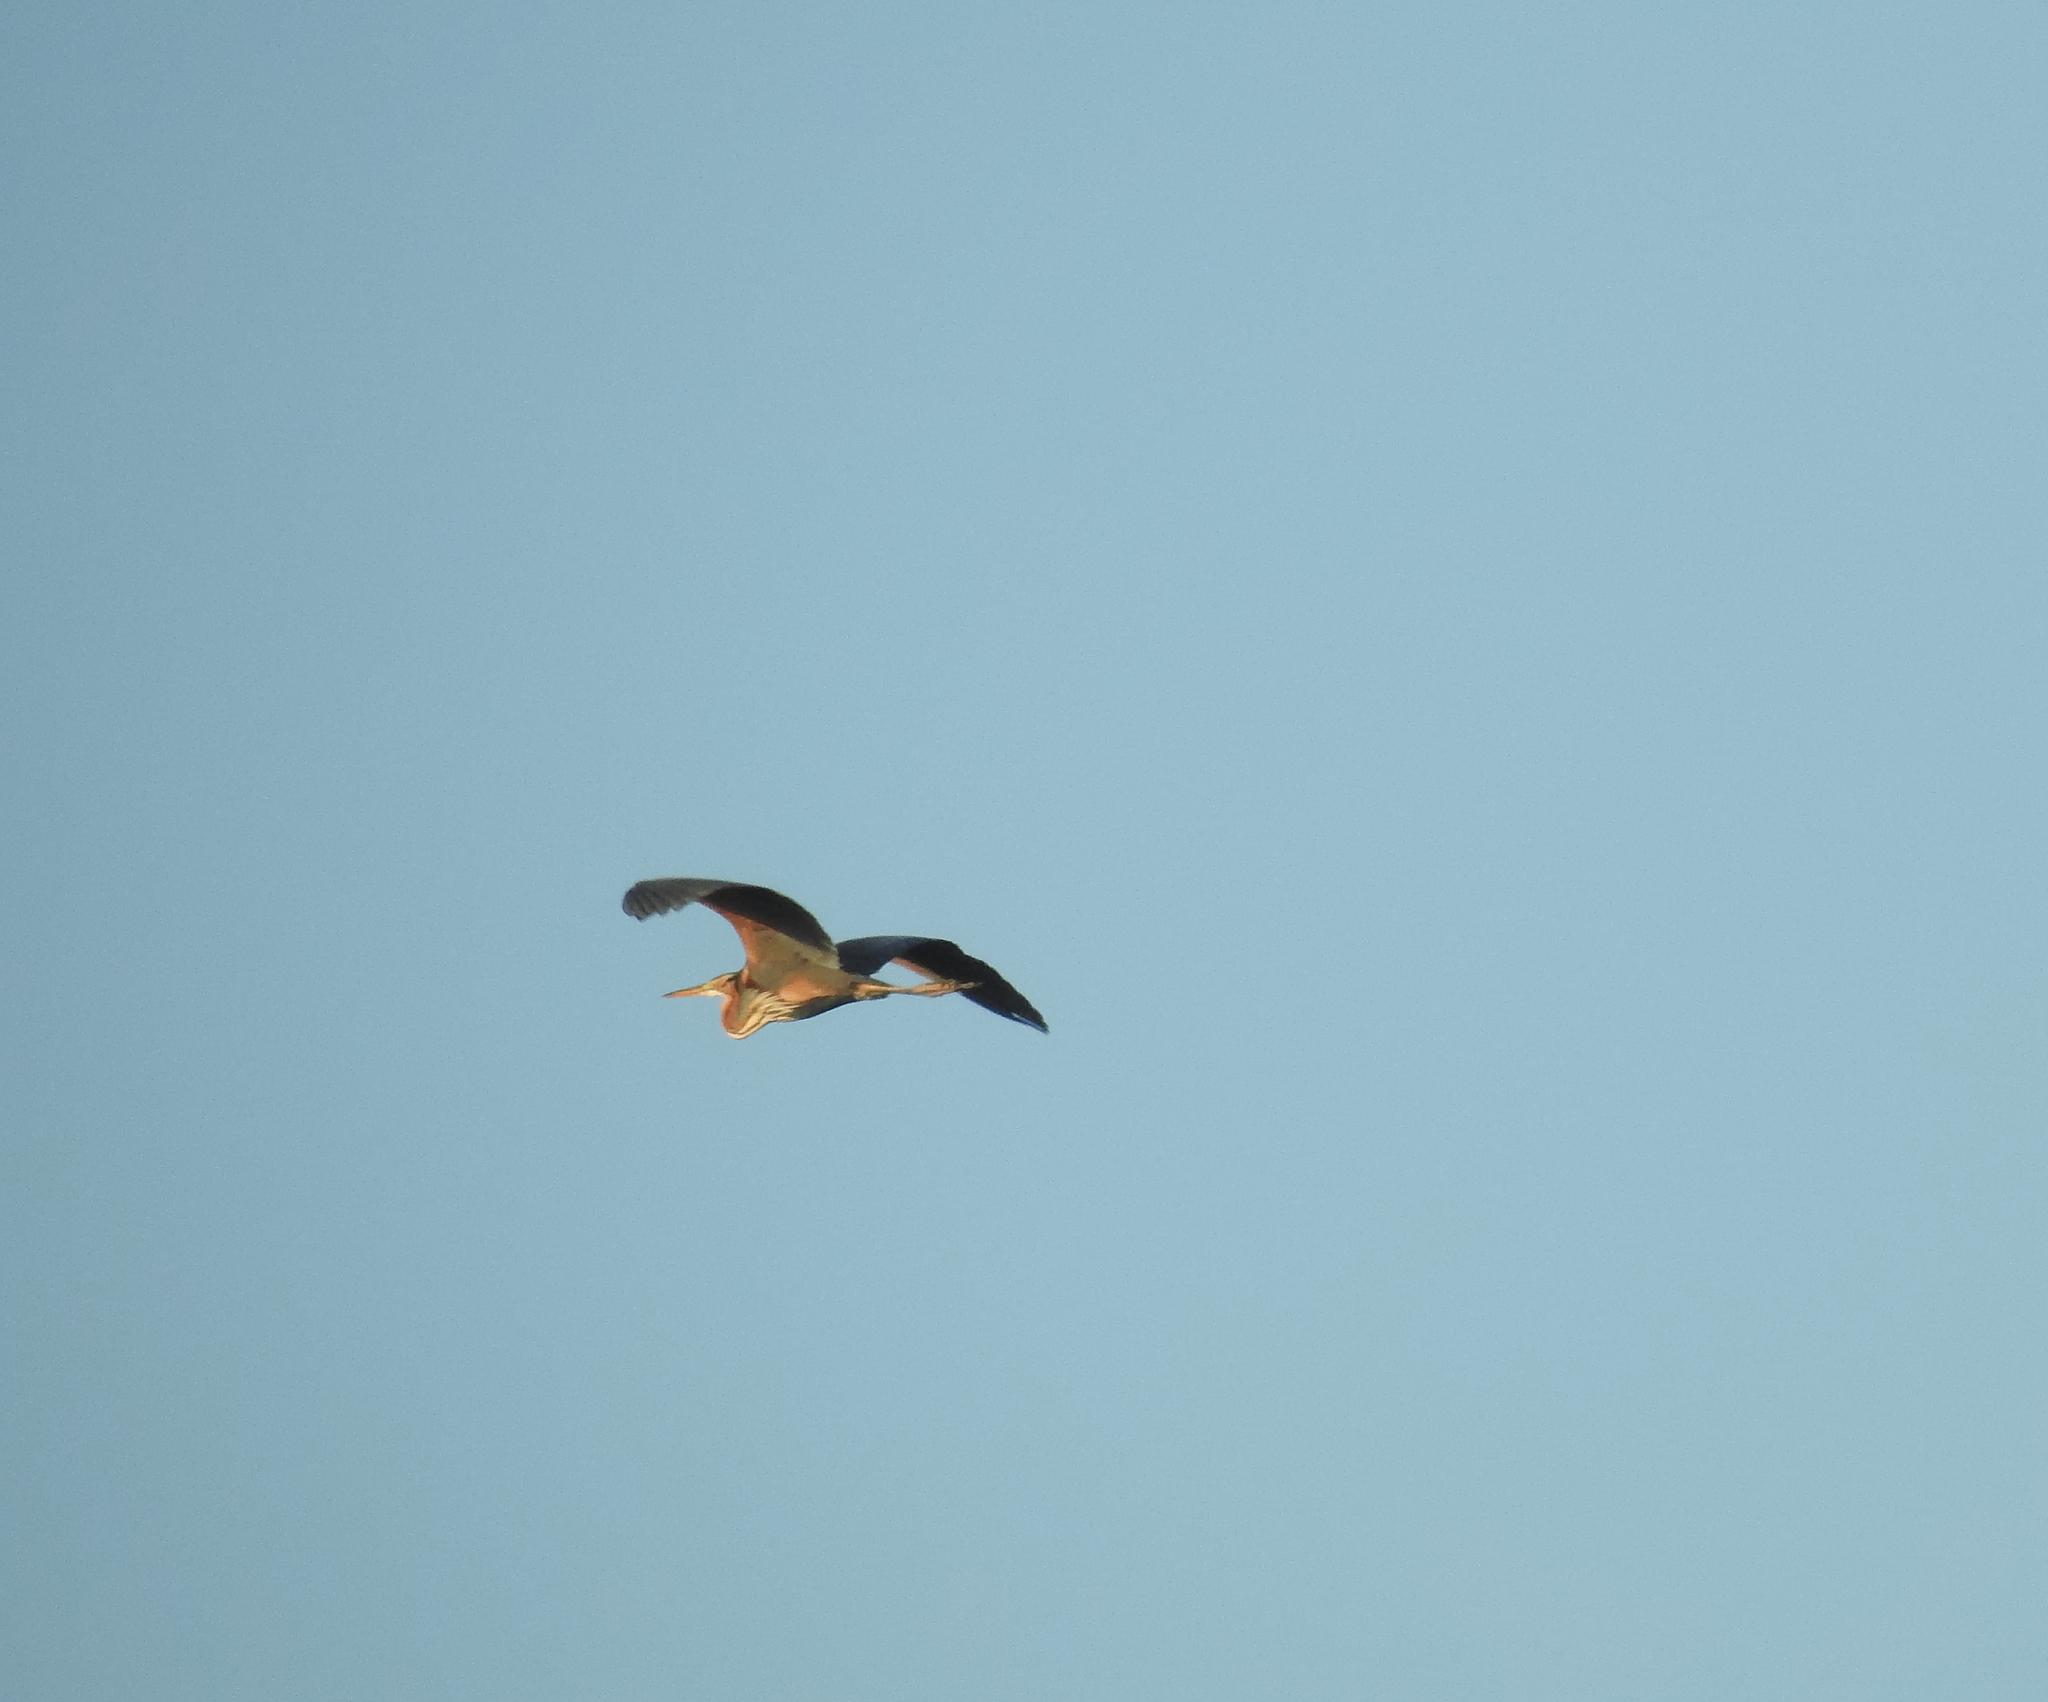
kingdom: Animalia
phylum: Chordata
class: Aves
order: Pelecaniformes
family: Ardeidae
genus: Ardea
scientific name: Ardea purpurea
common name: Purple heron
